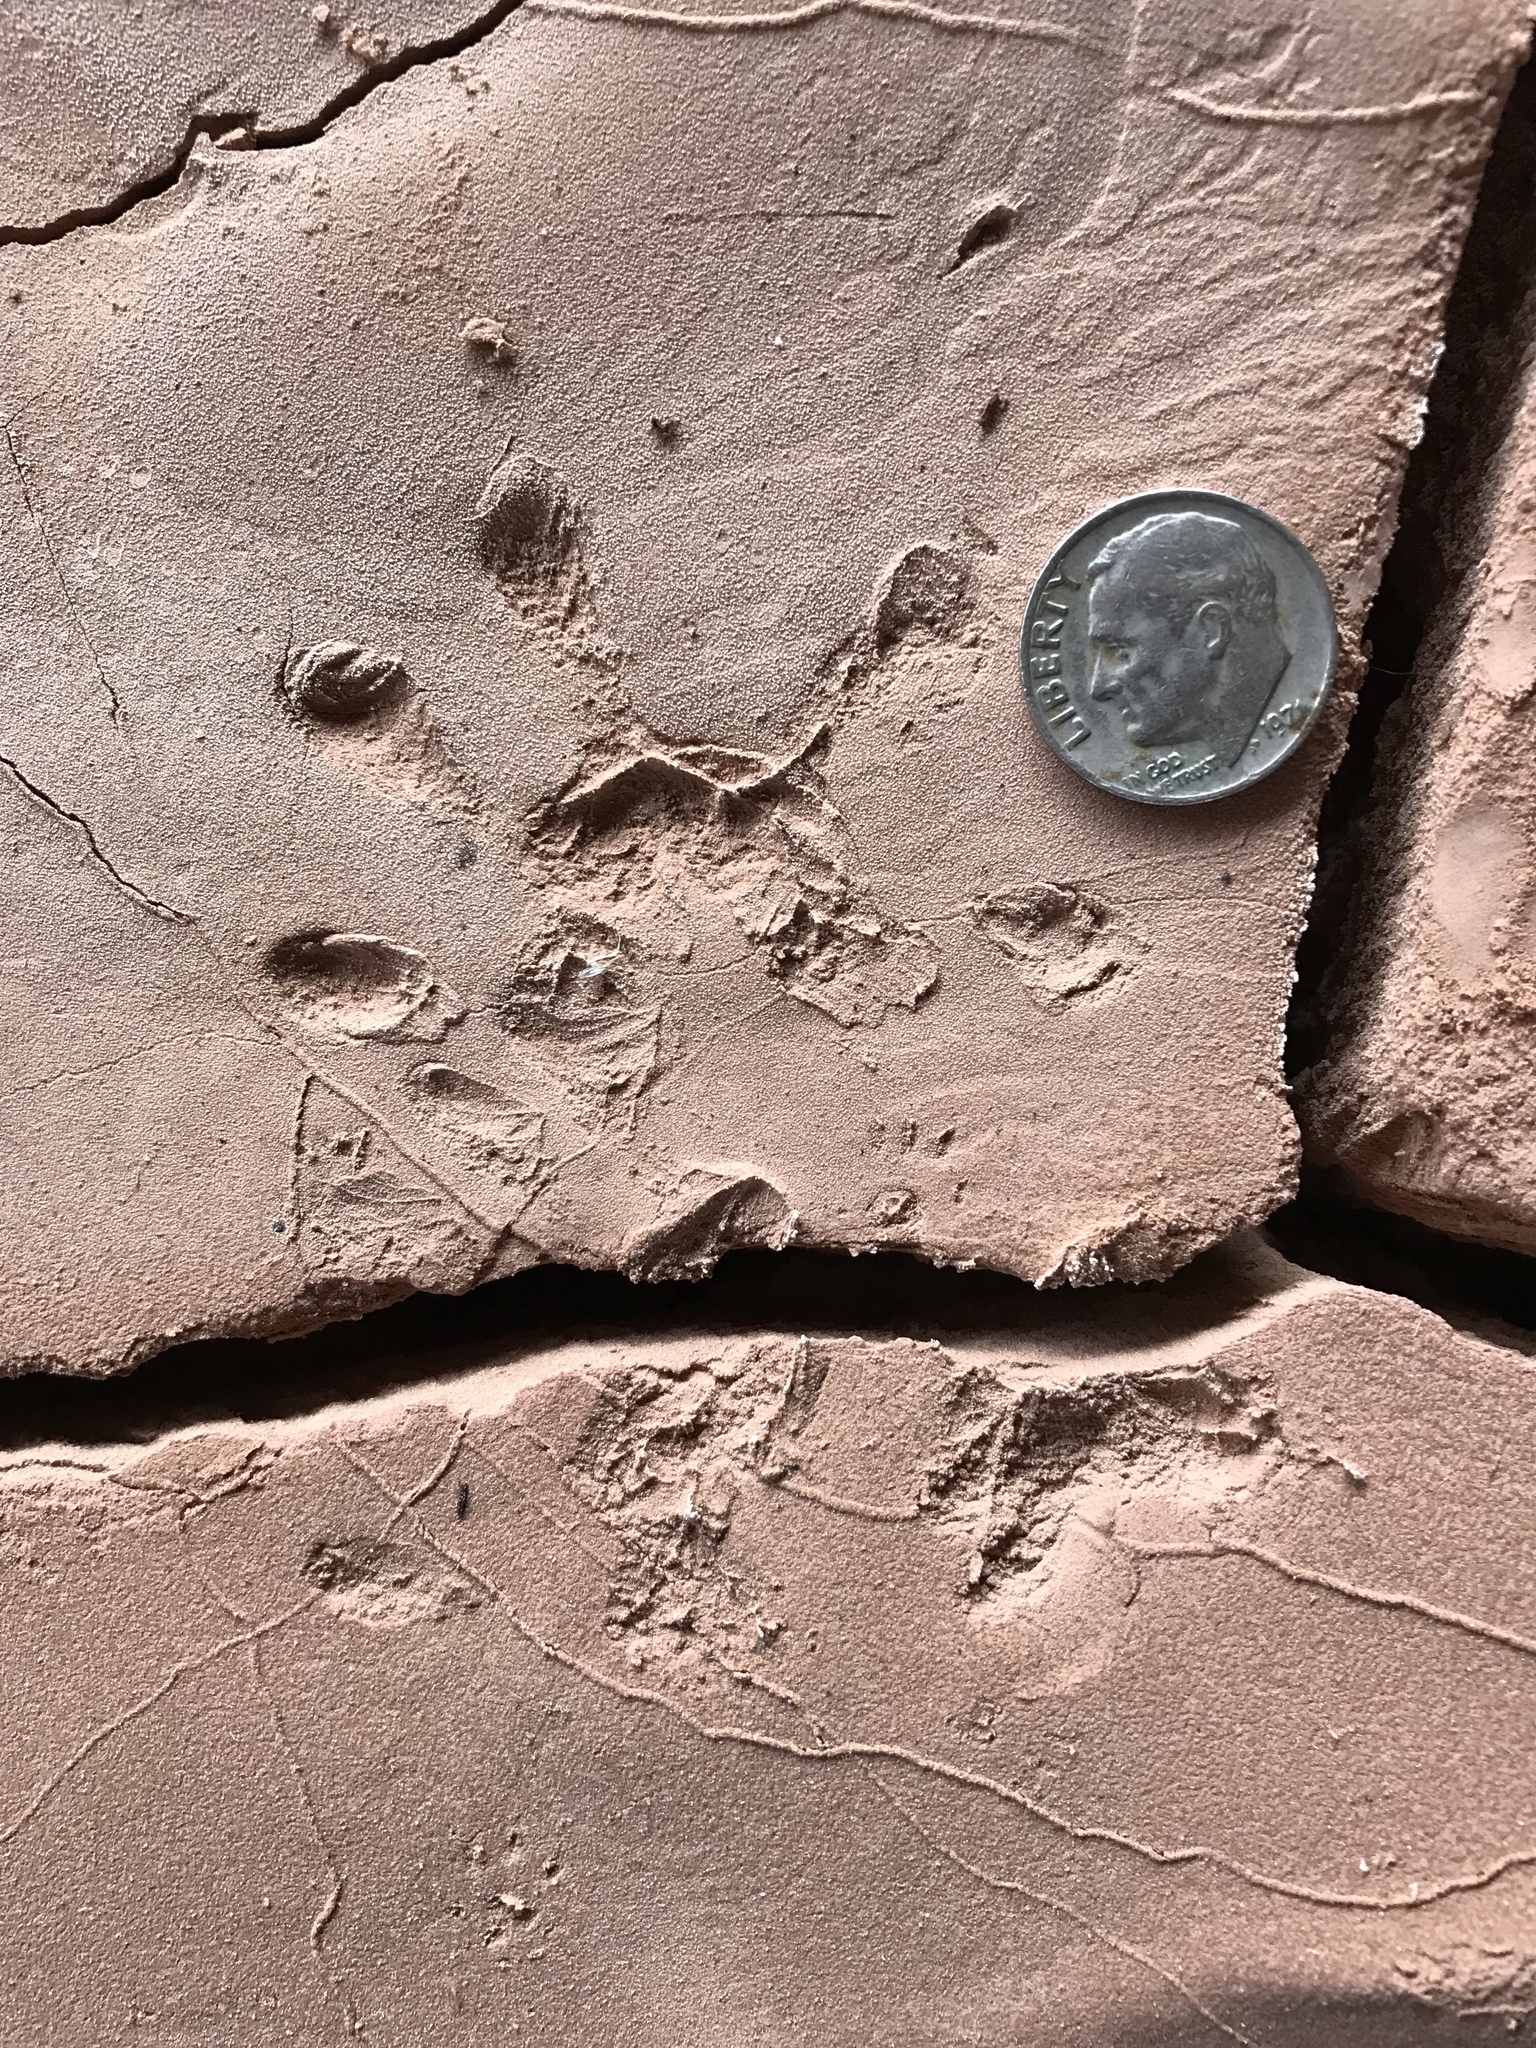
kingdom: Animalia
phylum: Chordata
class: Mammalia
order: Didelphimorphia
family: Didelphidae
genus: Didelphis
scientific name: Didelphis virginiana
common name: Virginia opossum
